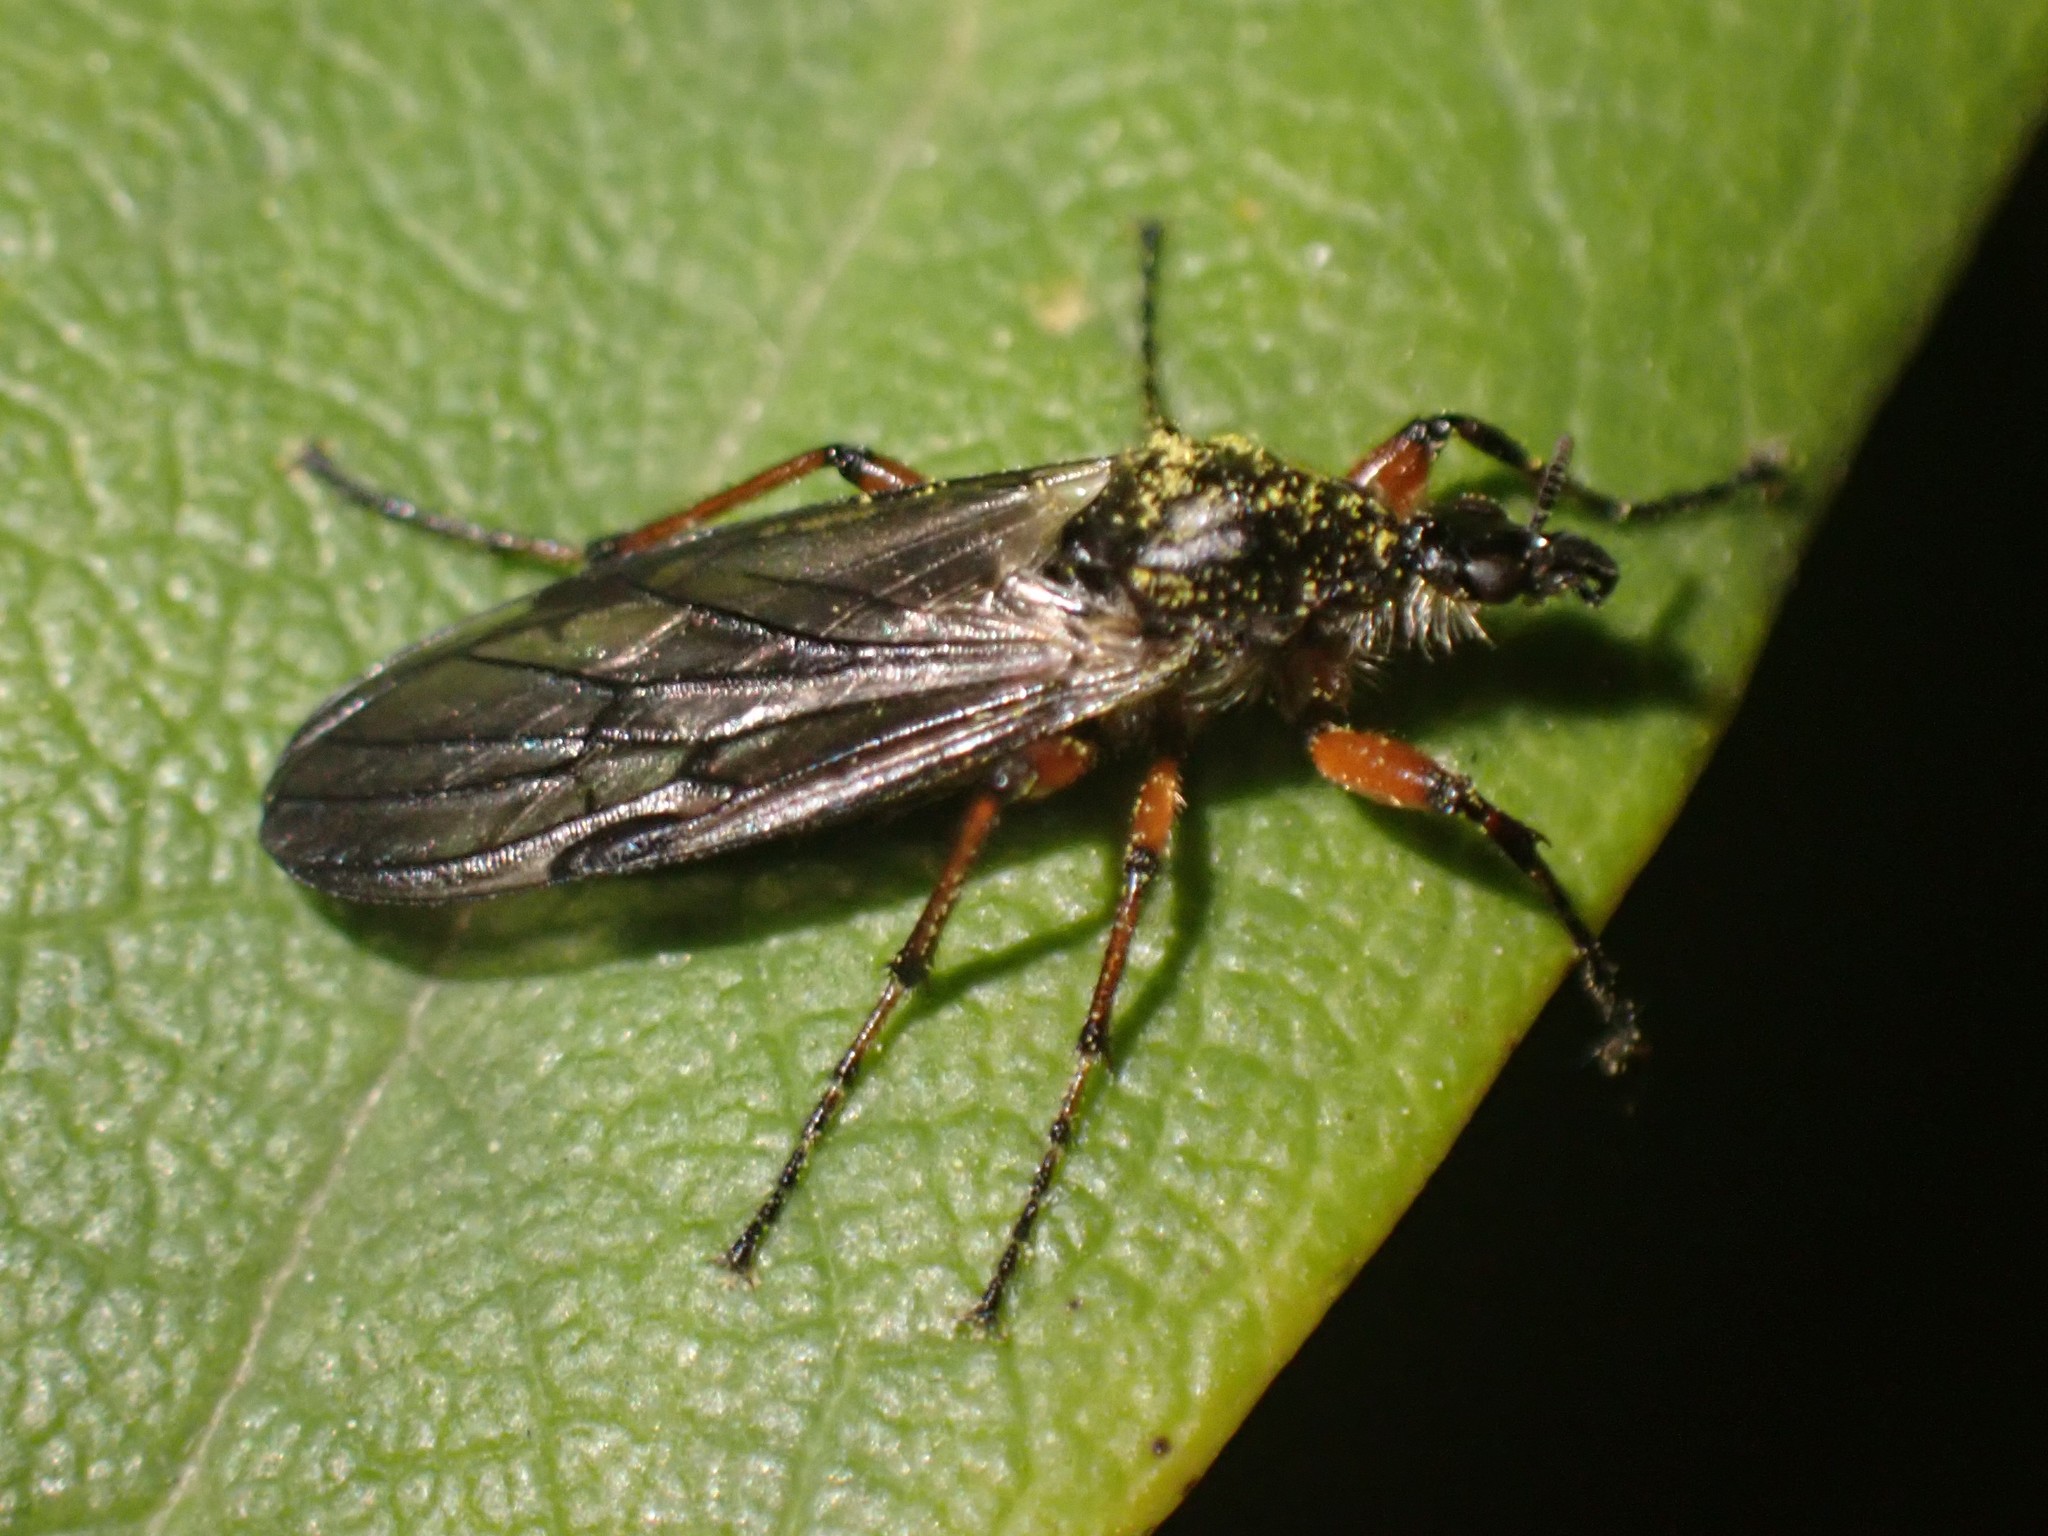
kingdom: Animalia
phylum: Arthropoda
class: Insecta
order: Diptera
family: Bibionidae
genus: Bibio
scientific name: Bibio
